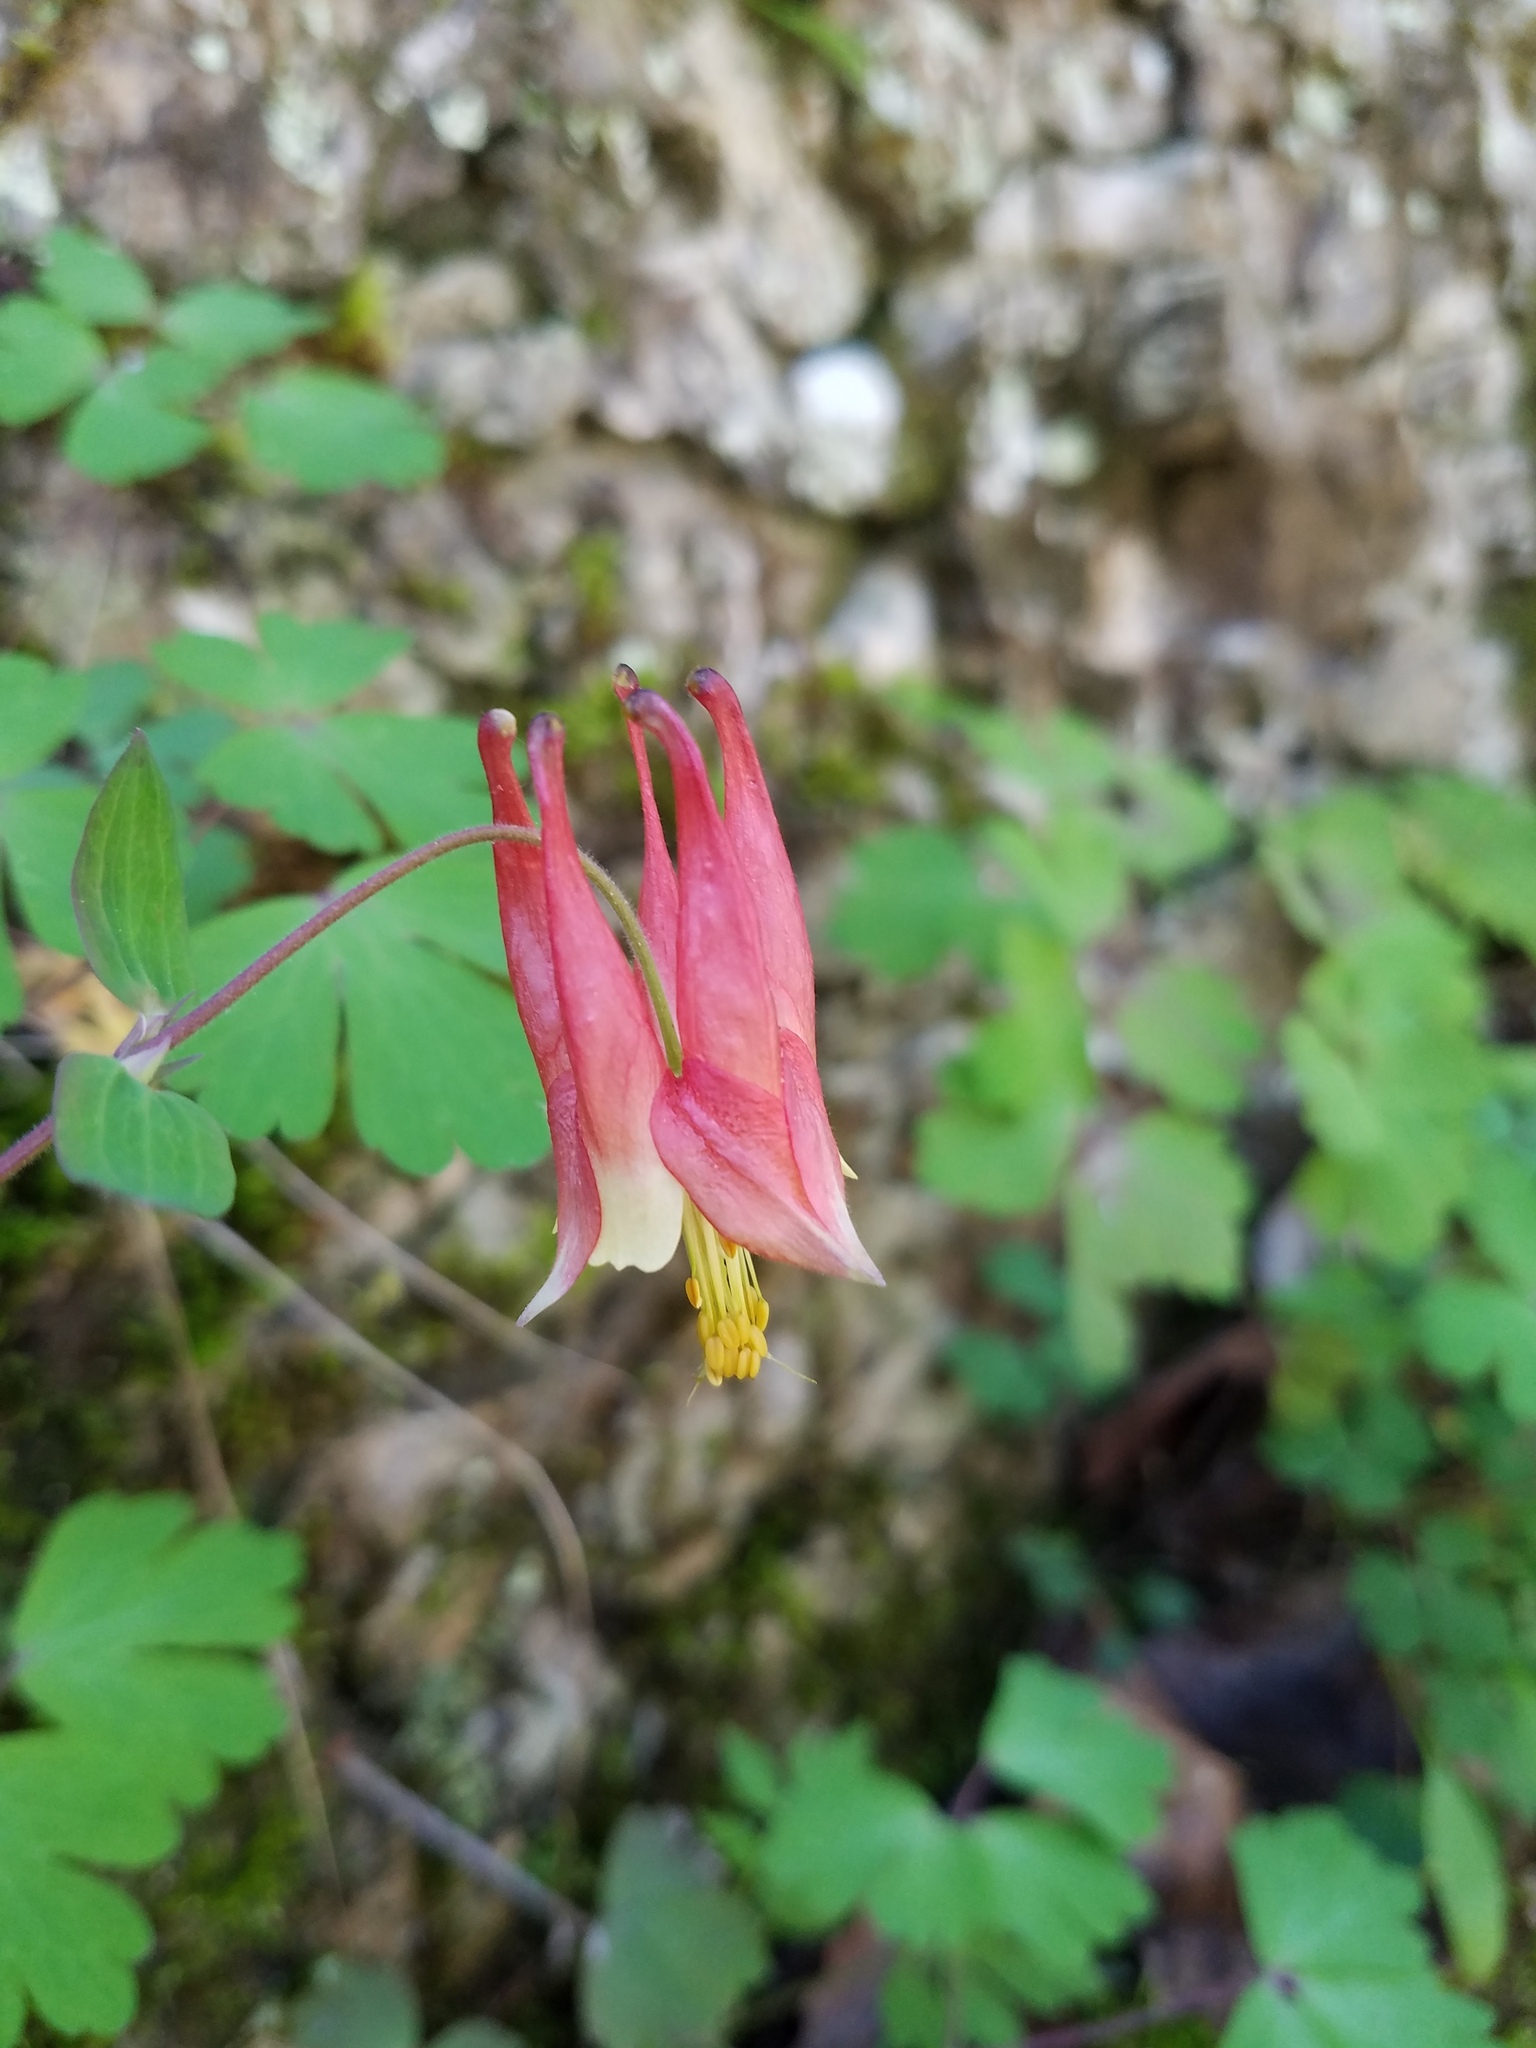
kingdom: Plantae
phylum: Tracheophyta
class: Magnoliopsida
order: Ranunculales
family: Ranunculaceae
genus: Aquilegia
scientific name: Aquilegia canadensis
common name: American columbine
